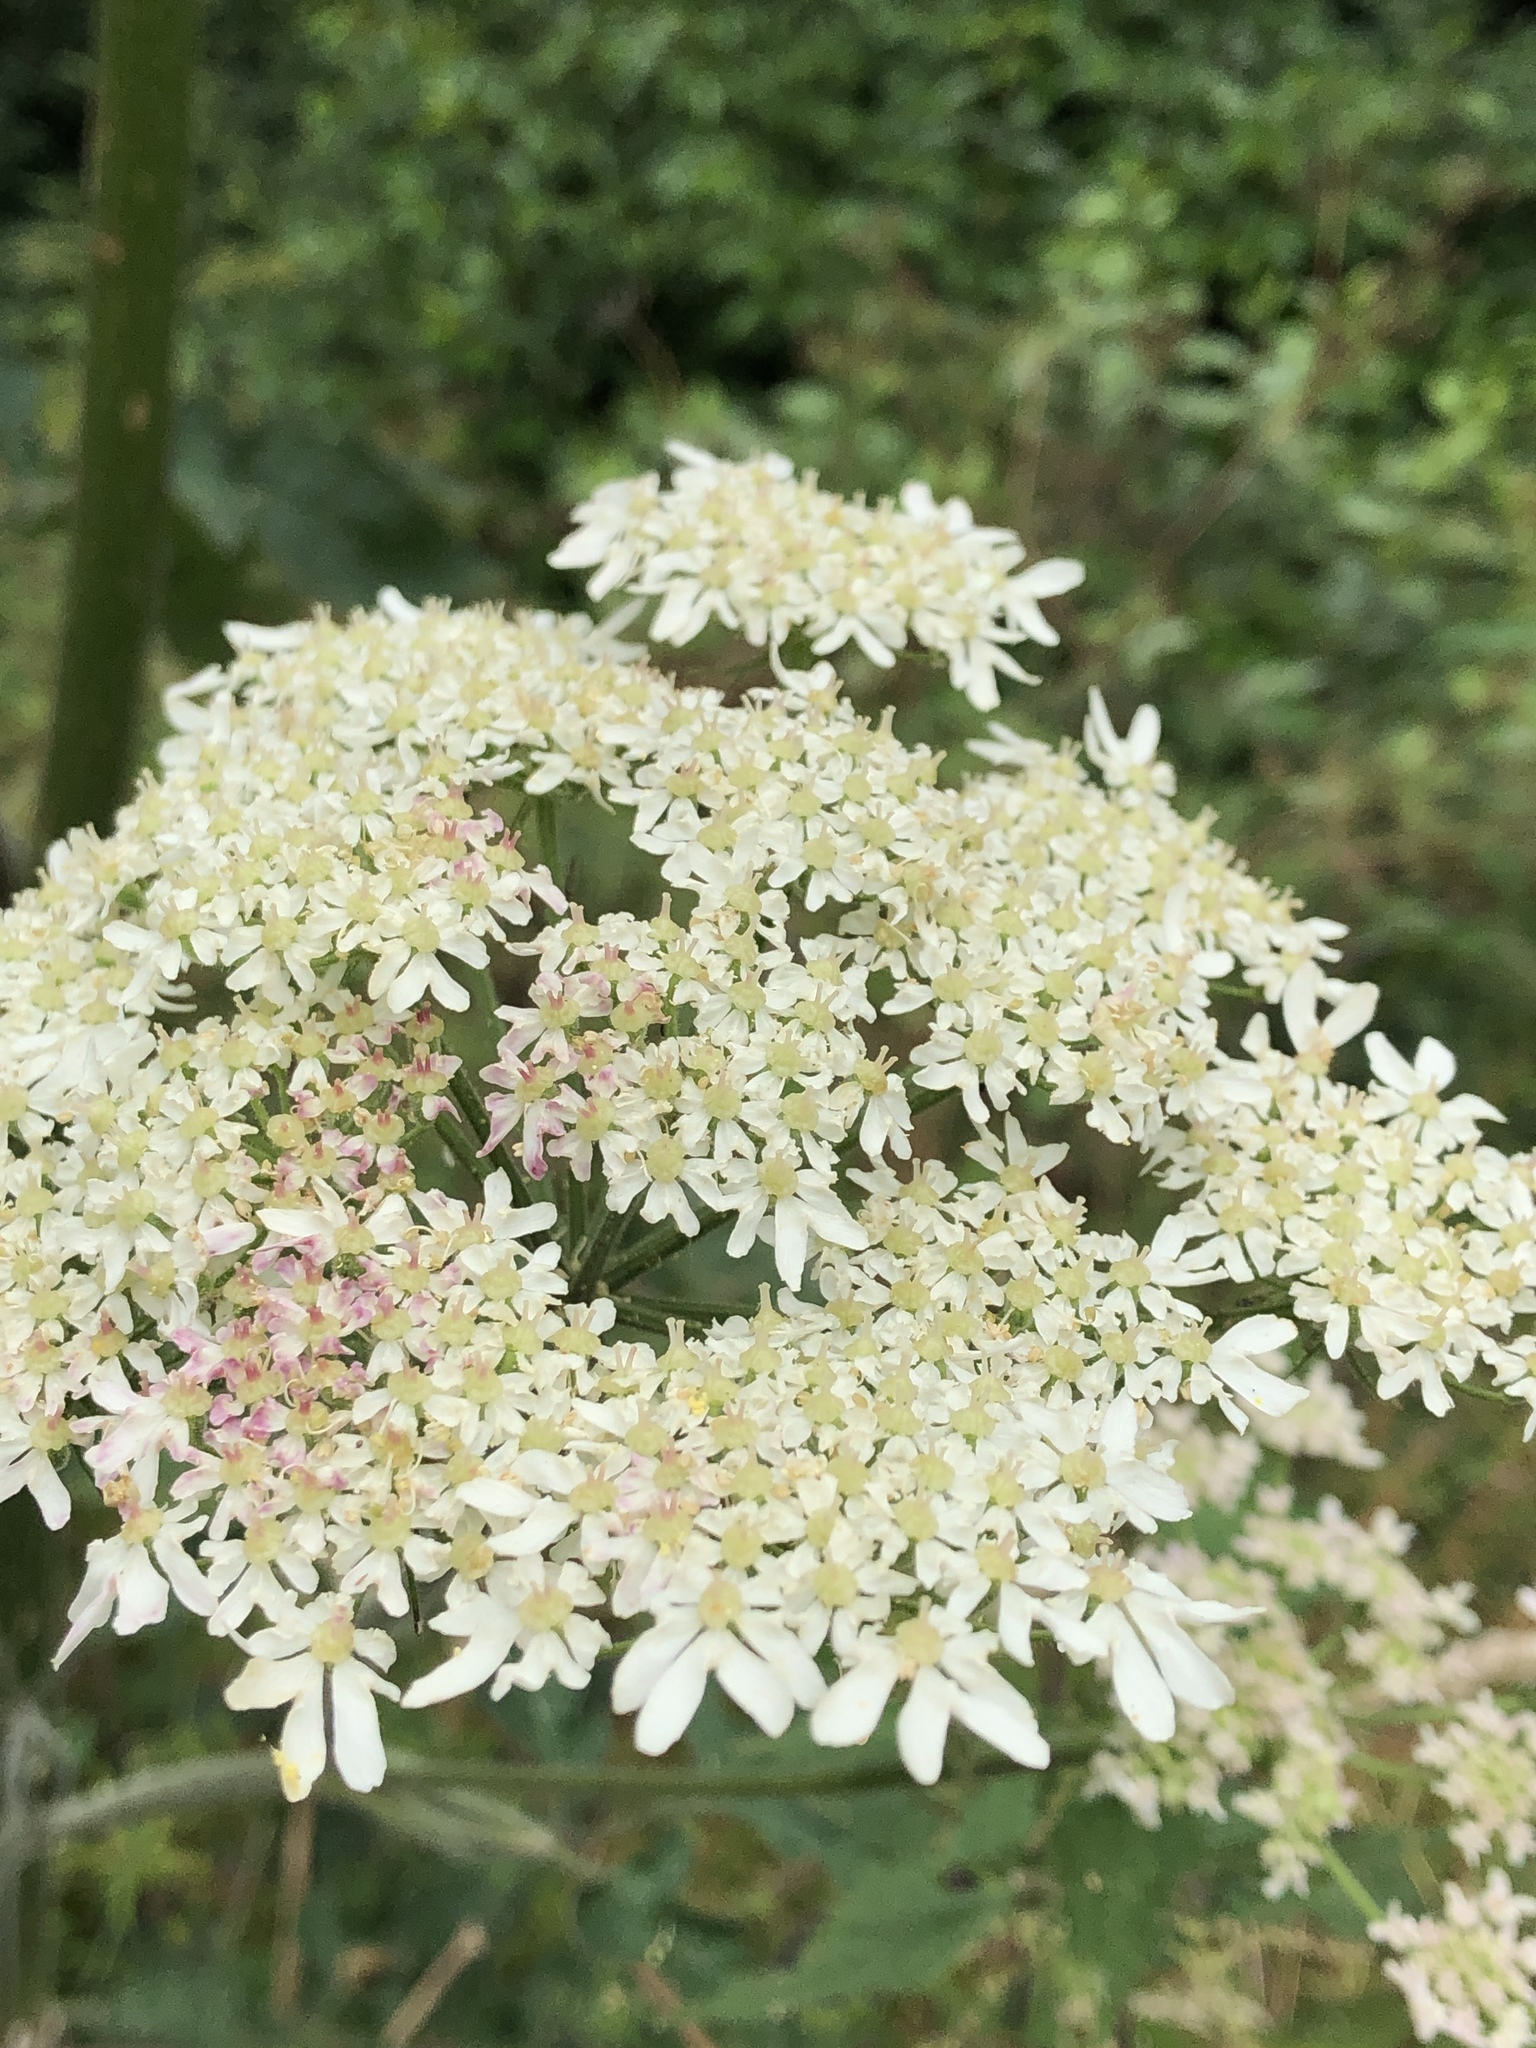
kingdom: Plantae
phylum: Tracheophyta
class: Magnoliopsida
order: Apiales
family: Apiaceae
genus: Heracleum
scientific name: Heracleum sphondylium
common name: Hogweed
